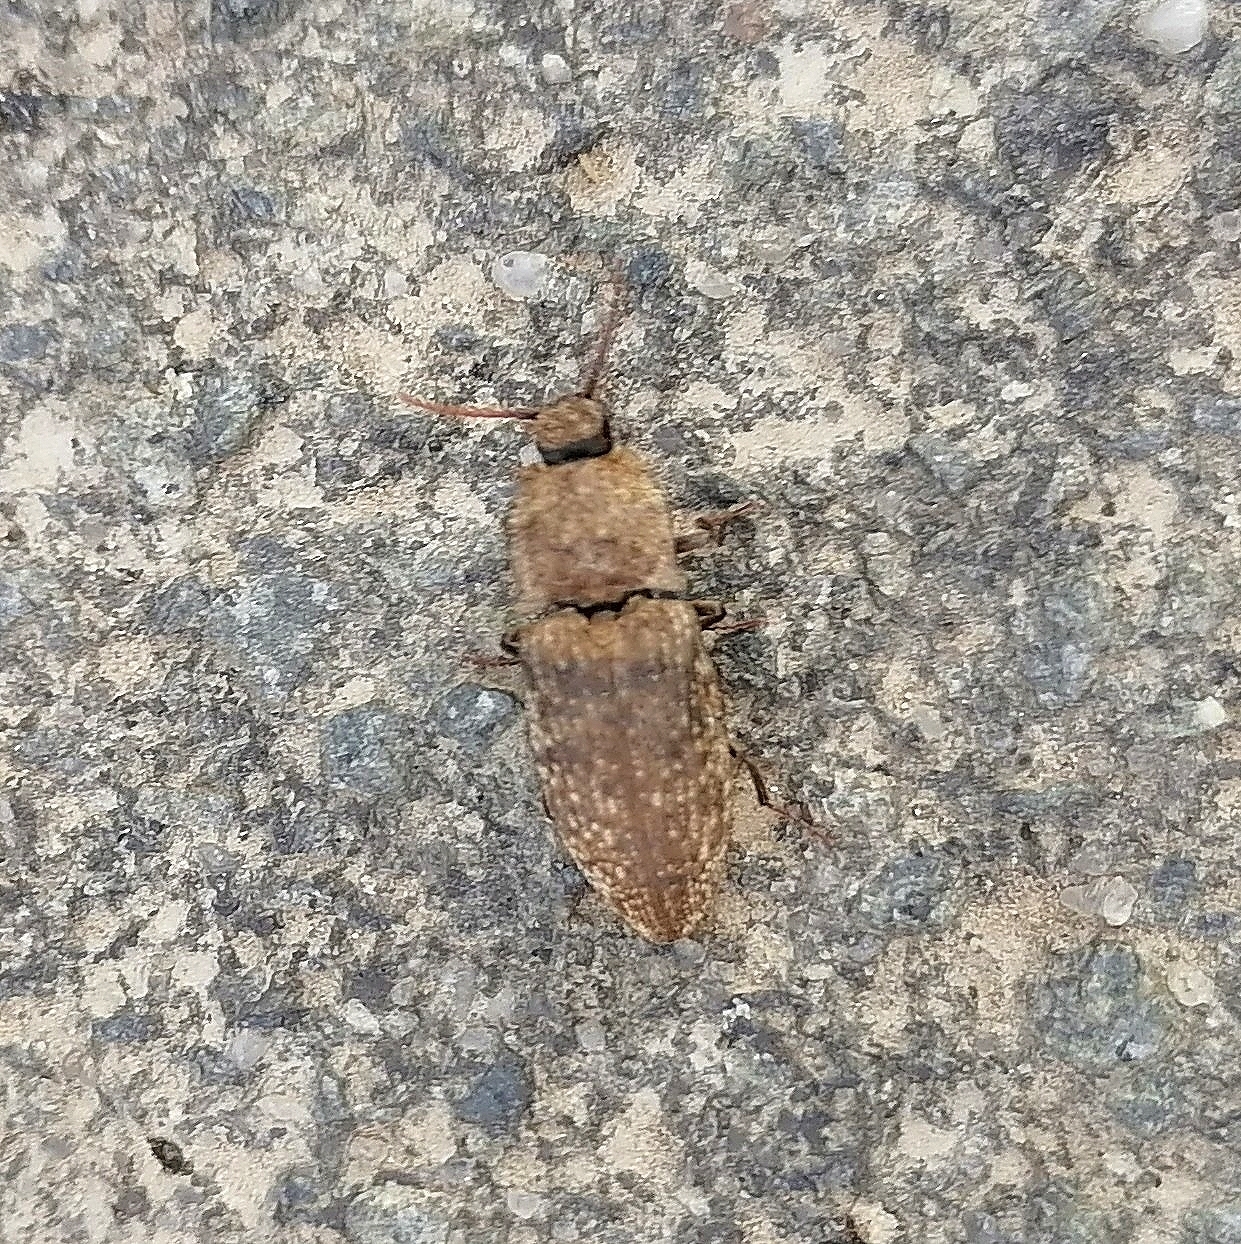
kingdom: Animalia
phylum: Arthropoda
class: Insecta
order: Coleoptera
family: Elateridae
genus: Agrypnus
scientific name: Agrypnus murinus
